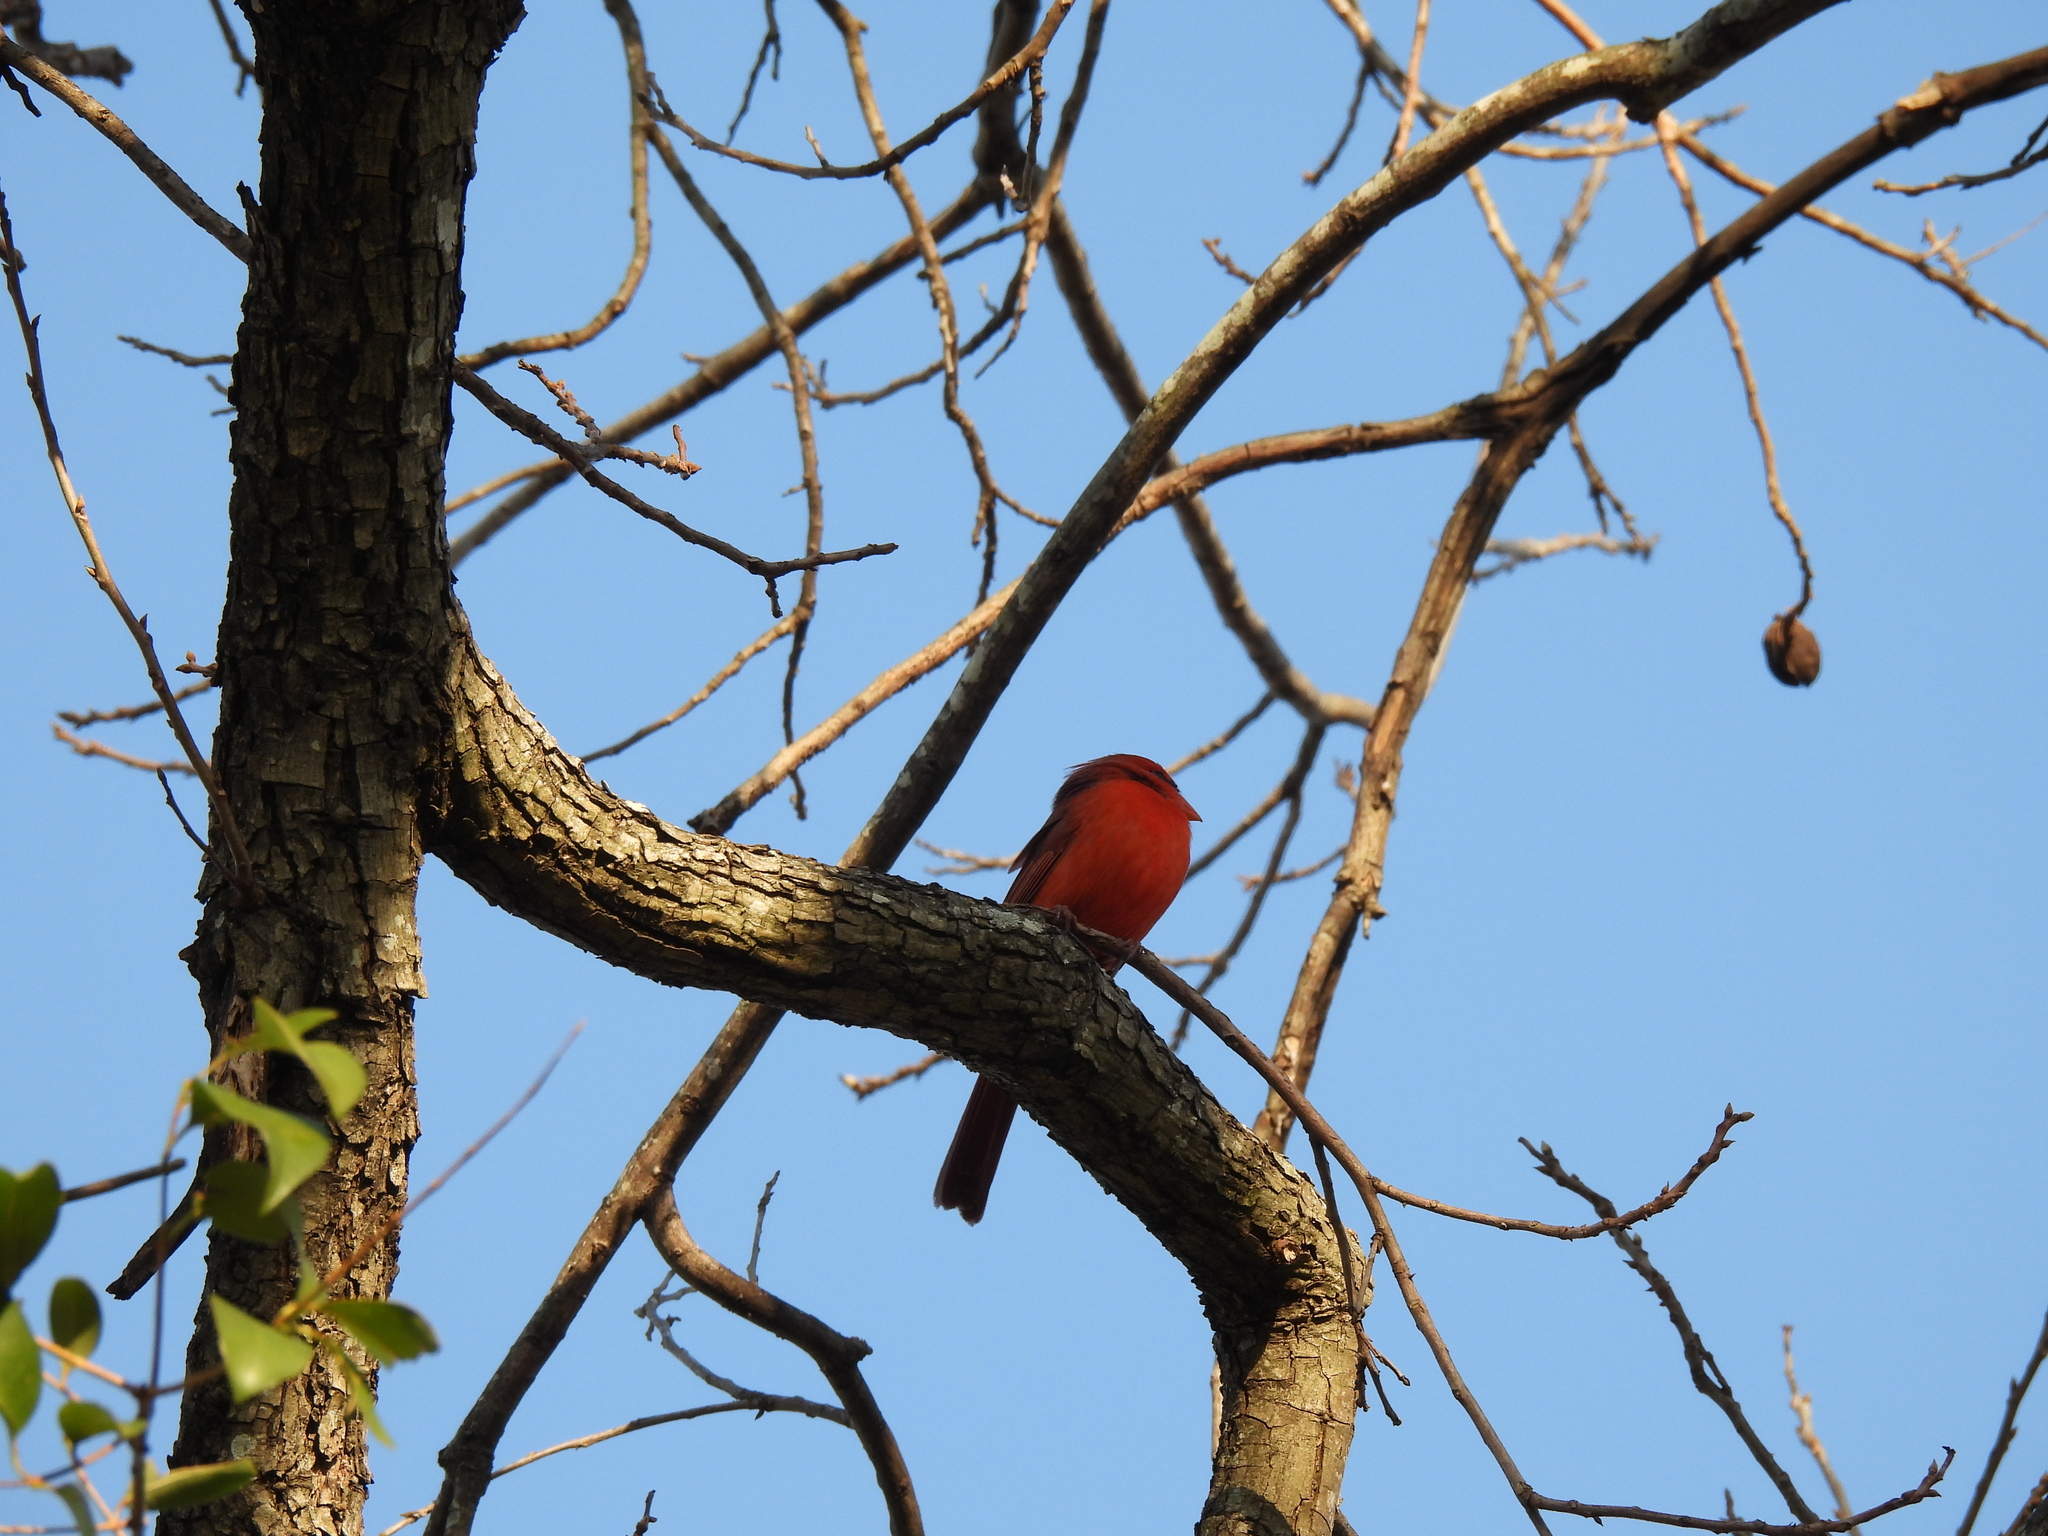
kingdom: Animalia
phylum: Chordata
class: Aves
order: Passeriformes
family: Cardinalidae
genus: Cardinalis
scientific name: Cardinalis cardinalis
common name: Northern cardinal
